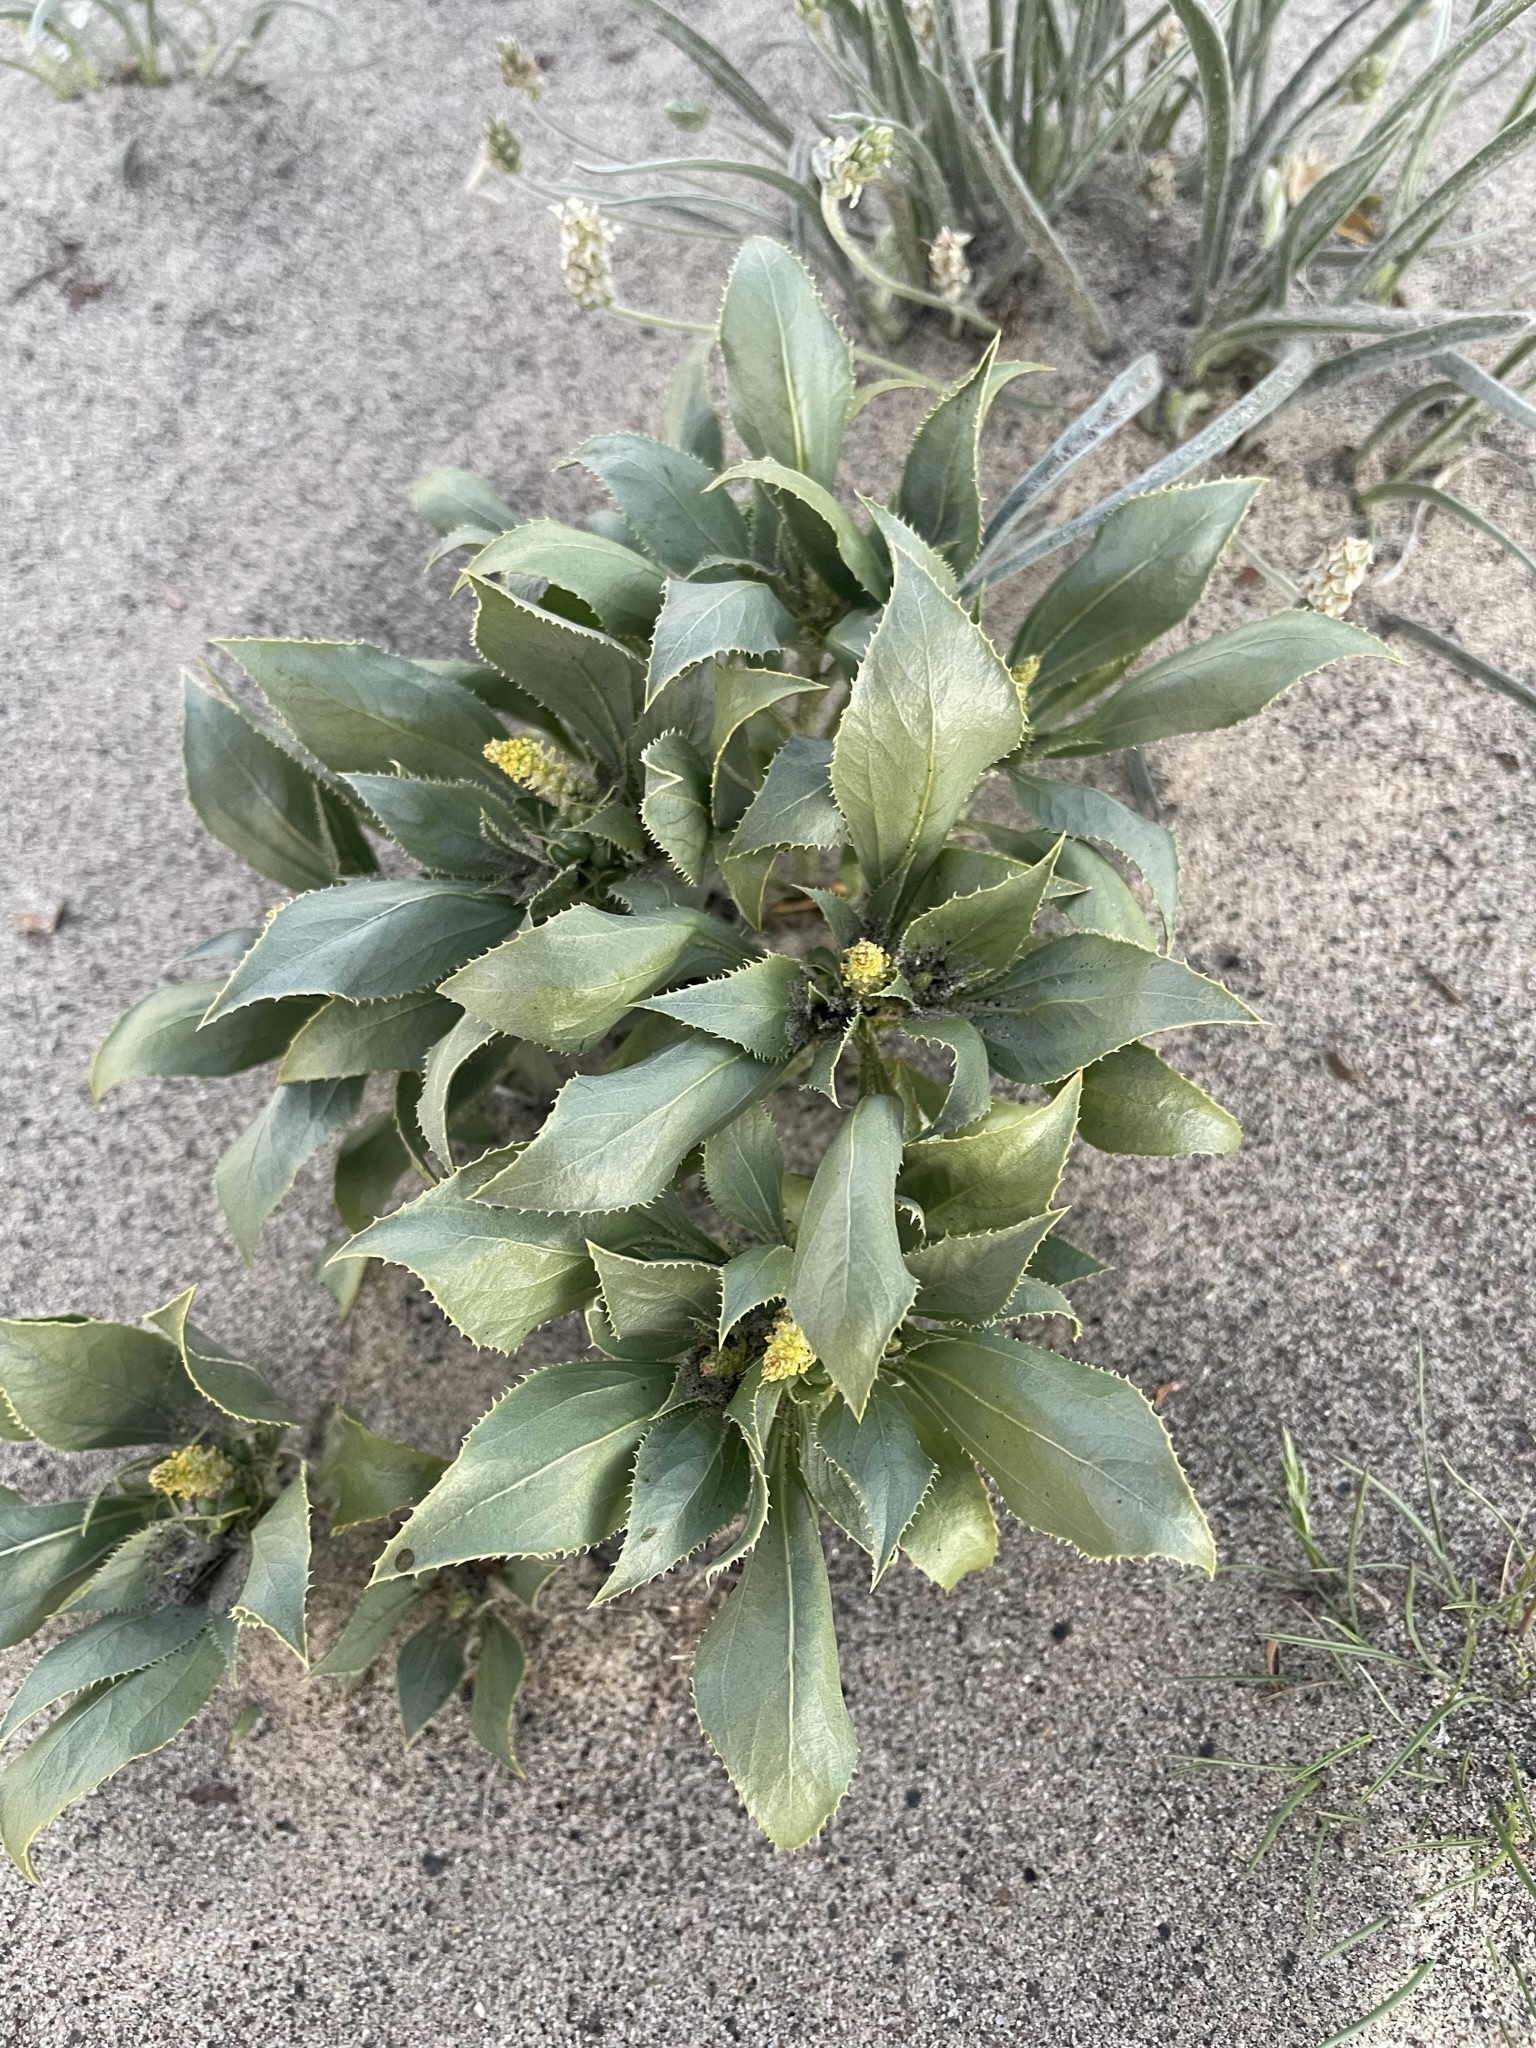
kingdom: Plantae
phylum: Tracheophyta
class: Magnoliopsida
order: Malpighiales
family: Euphorbiaceae
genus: Stillingia
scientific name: Stillingia spinulosa
